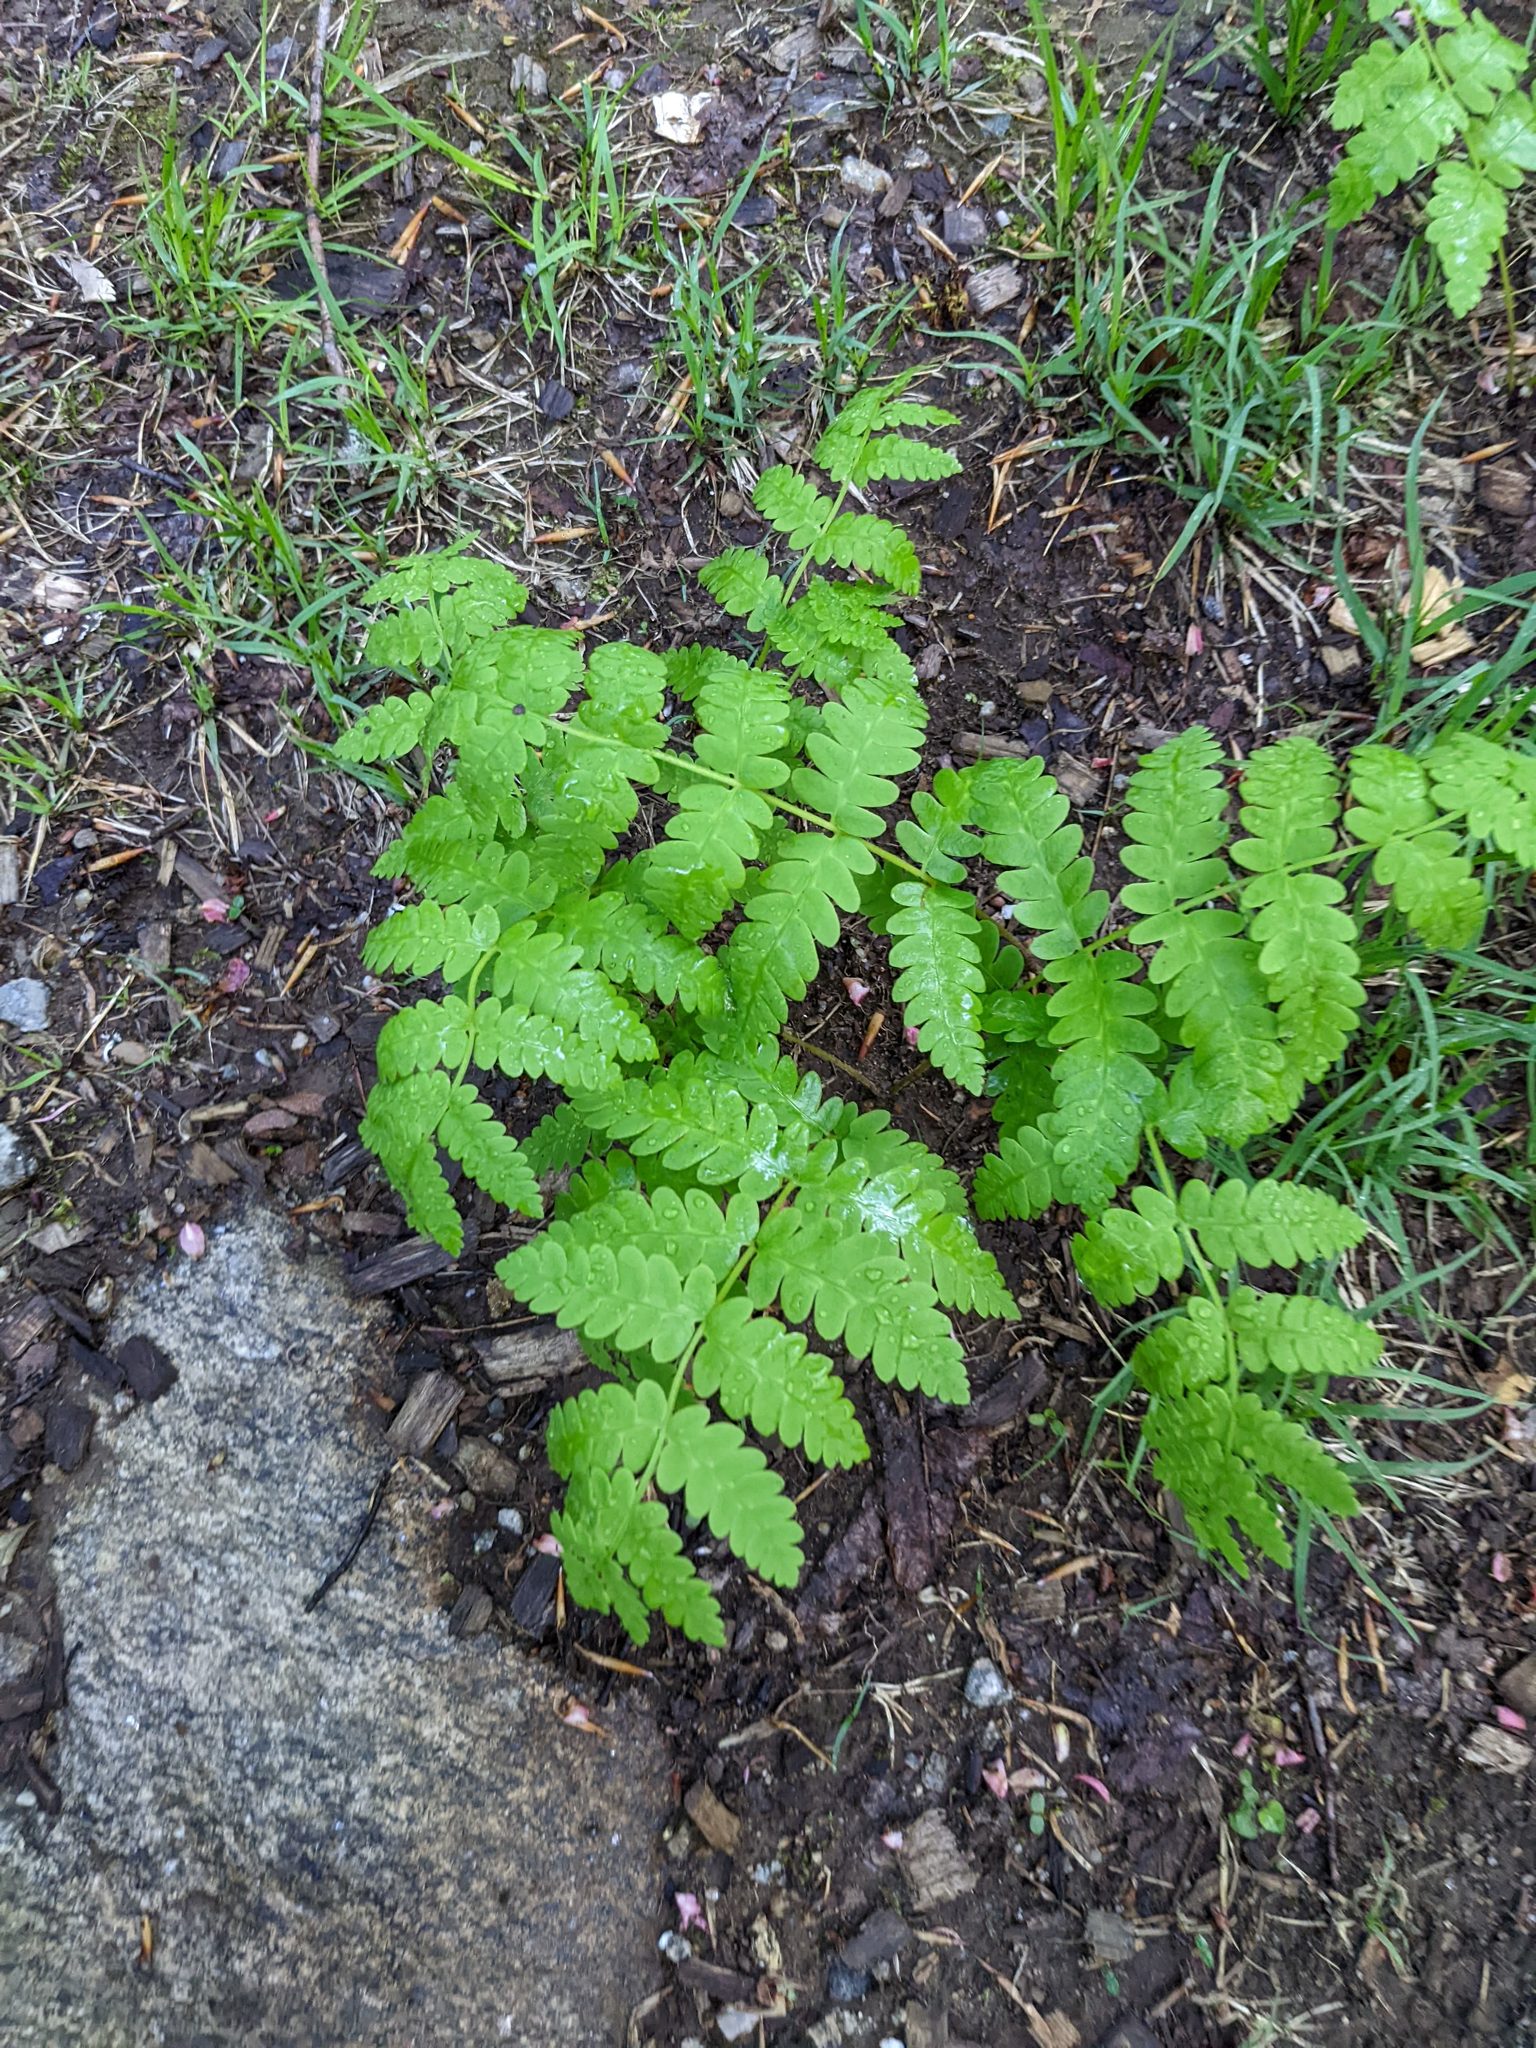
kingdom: Plantae
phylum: Tracheophyta
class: Polypodiopsida
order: Osmundales
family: Osmundaceae
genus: Claytosmunda
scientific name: Claytosmunda claytoniana
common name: Clayton's fern
